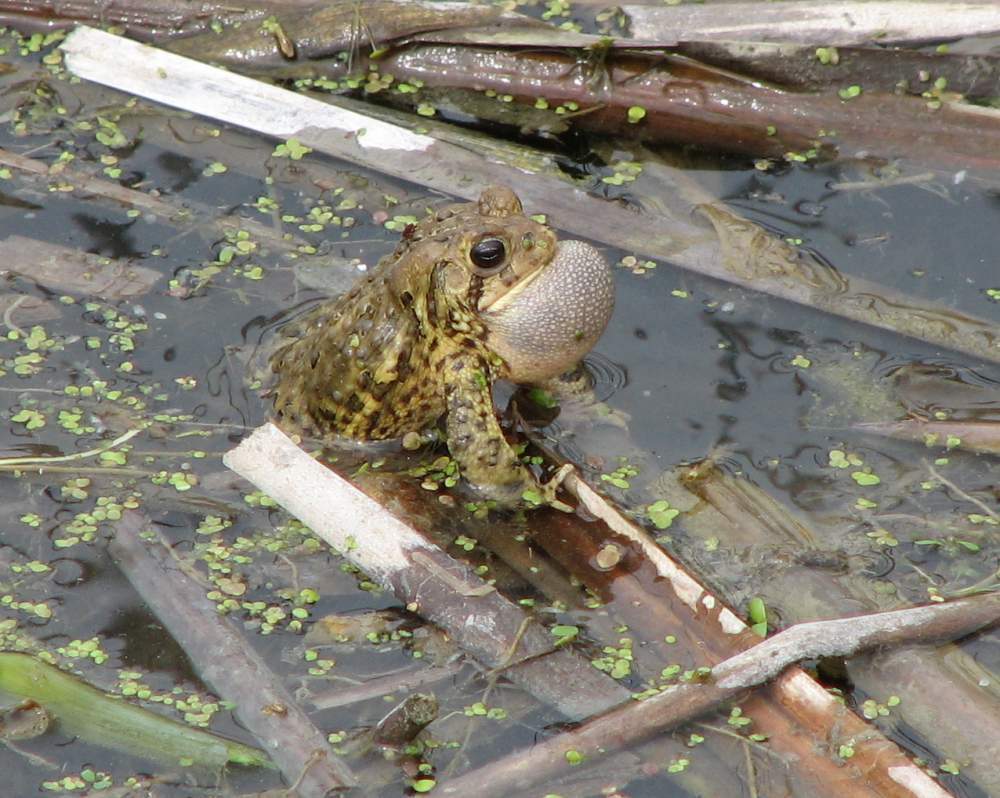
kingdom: Animalia
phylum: Chordata
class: Amphibia
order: Anura
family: Bufonidae
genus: Anaxyrus
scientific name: Anaxyrus americanus
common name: American toad
